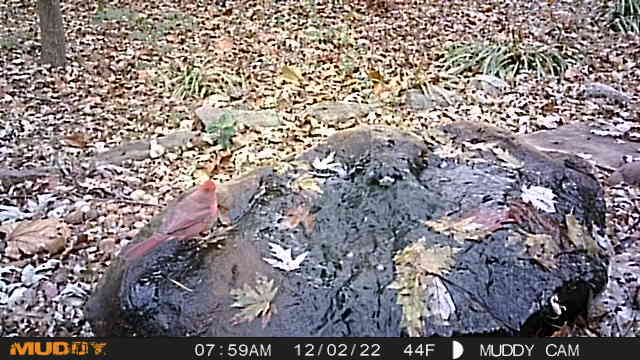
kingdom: Animalia
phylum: Chordata
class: Aves
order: Passeriformes
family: Cardinalidae
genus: Cardinalis
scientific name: Cardinalis cardinalis
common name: Northern cardinal
